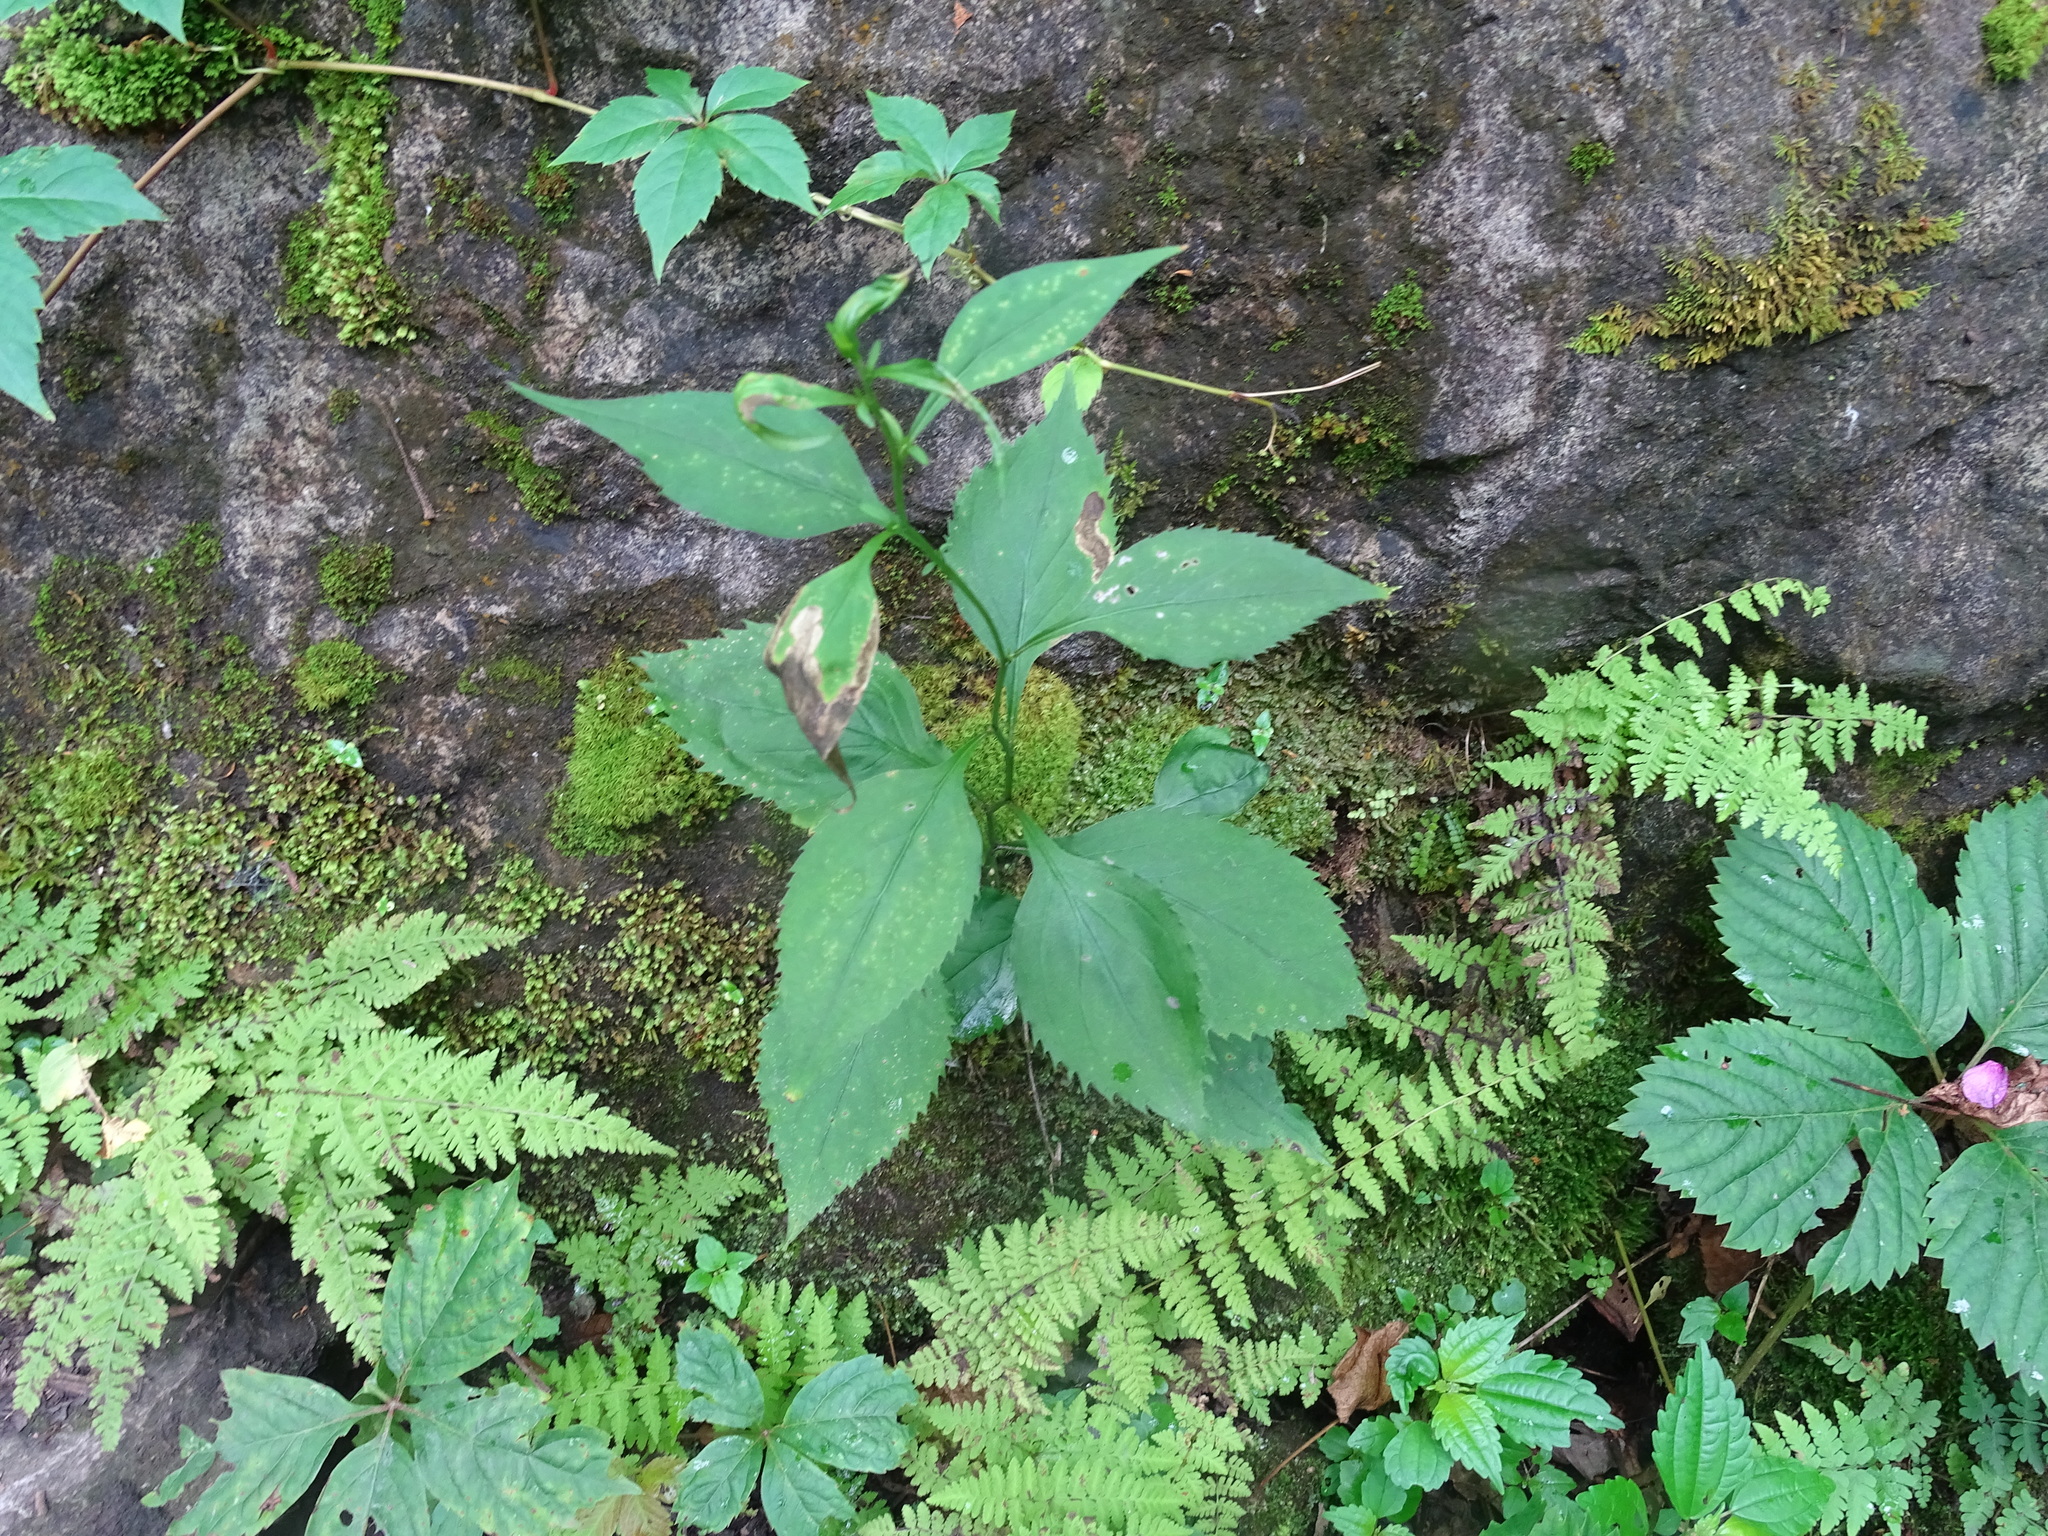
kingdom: Plantae
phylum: Tracheophyta
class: Magnoliopsida
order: Asterales
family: Asteraceae
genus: Solidago
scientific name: Solidago flexicaulis
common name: Zig-zag goldenrod
